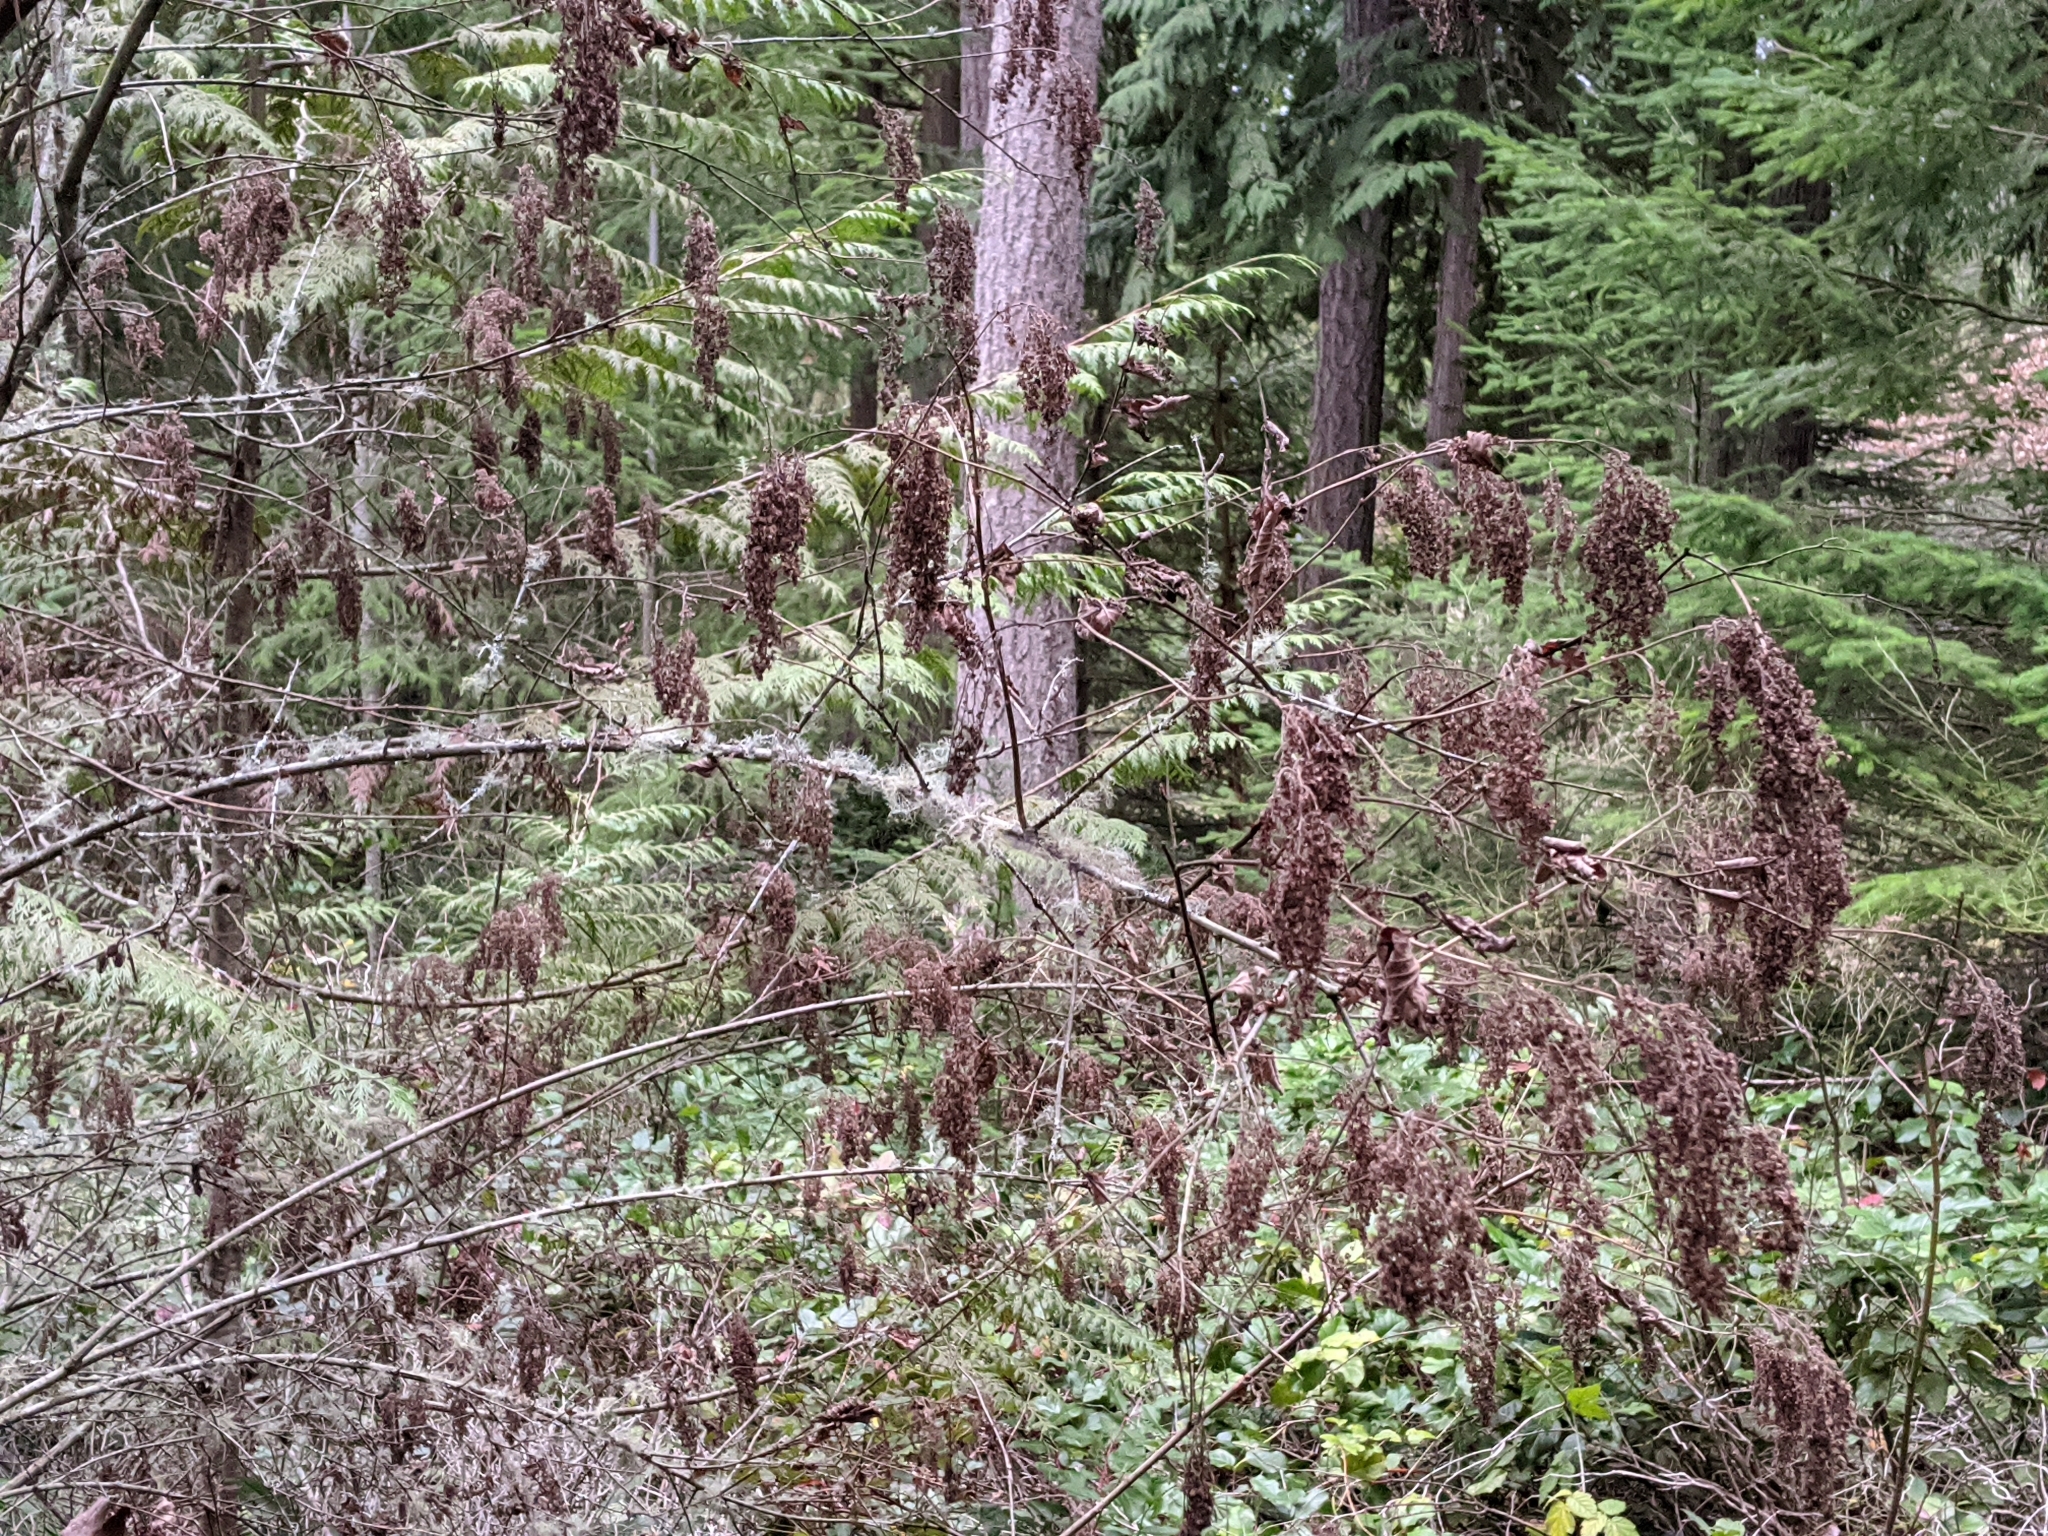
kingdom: Plantae
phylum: Tracheophyta
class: Magnoliopsida
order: Rosales
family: Rosaceae
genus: Holodiscus
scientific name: Holodiscus discolor
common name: Oceanspray
